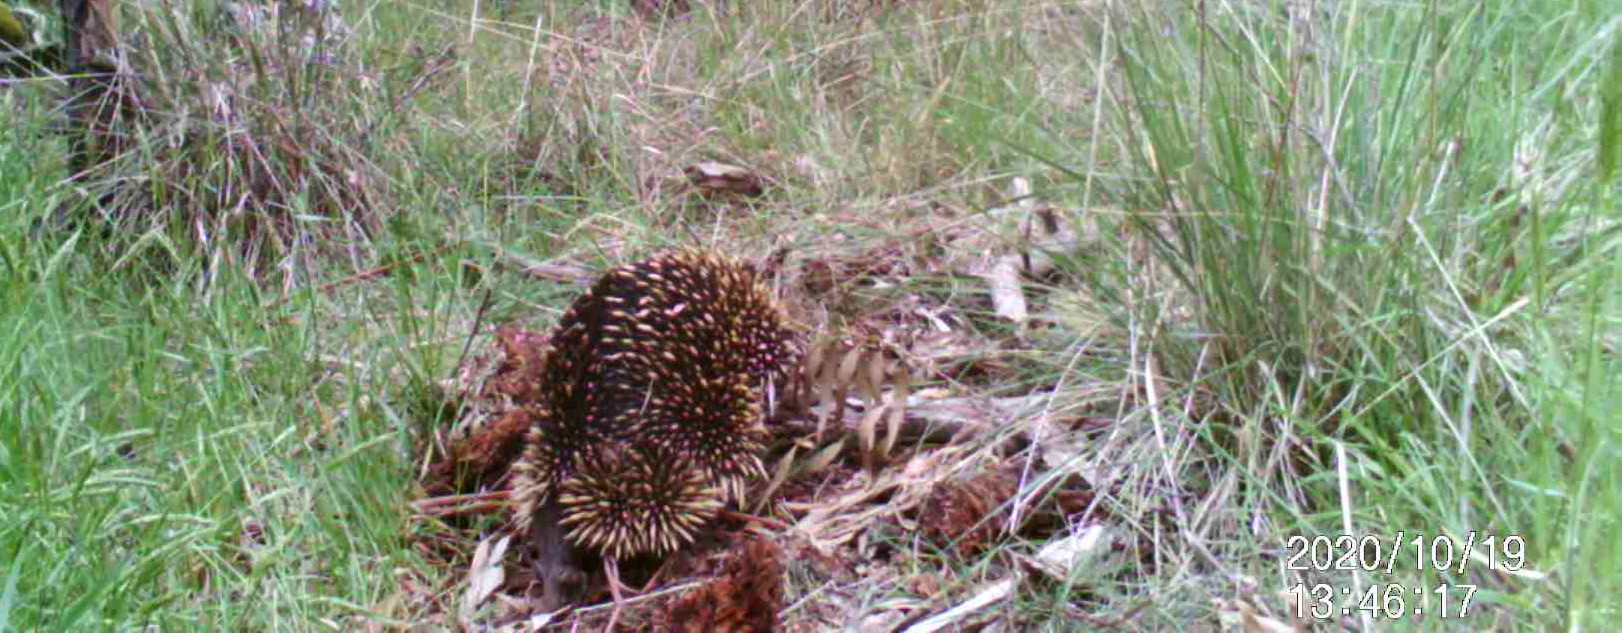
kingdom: Animalia
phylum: Chordata
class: Mammalia
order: Monotremata
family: Tachyglossidae
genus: Tachyglossus
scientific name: Tachyglossus aculeatus
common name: Short-beaked echidna
